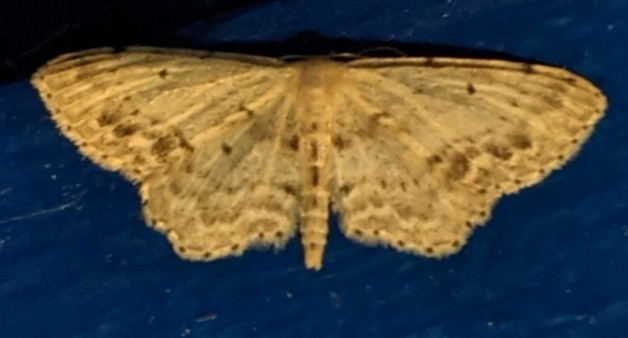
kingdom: Animalia
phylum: Arthropoda
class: Insecta
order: Lepidoptera
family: Geometridae
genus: Idaea
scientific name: Idaea dimidiata
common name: Single-dotted wave
